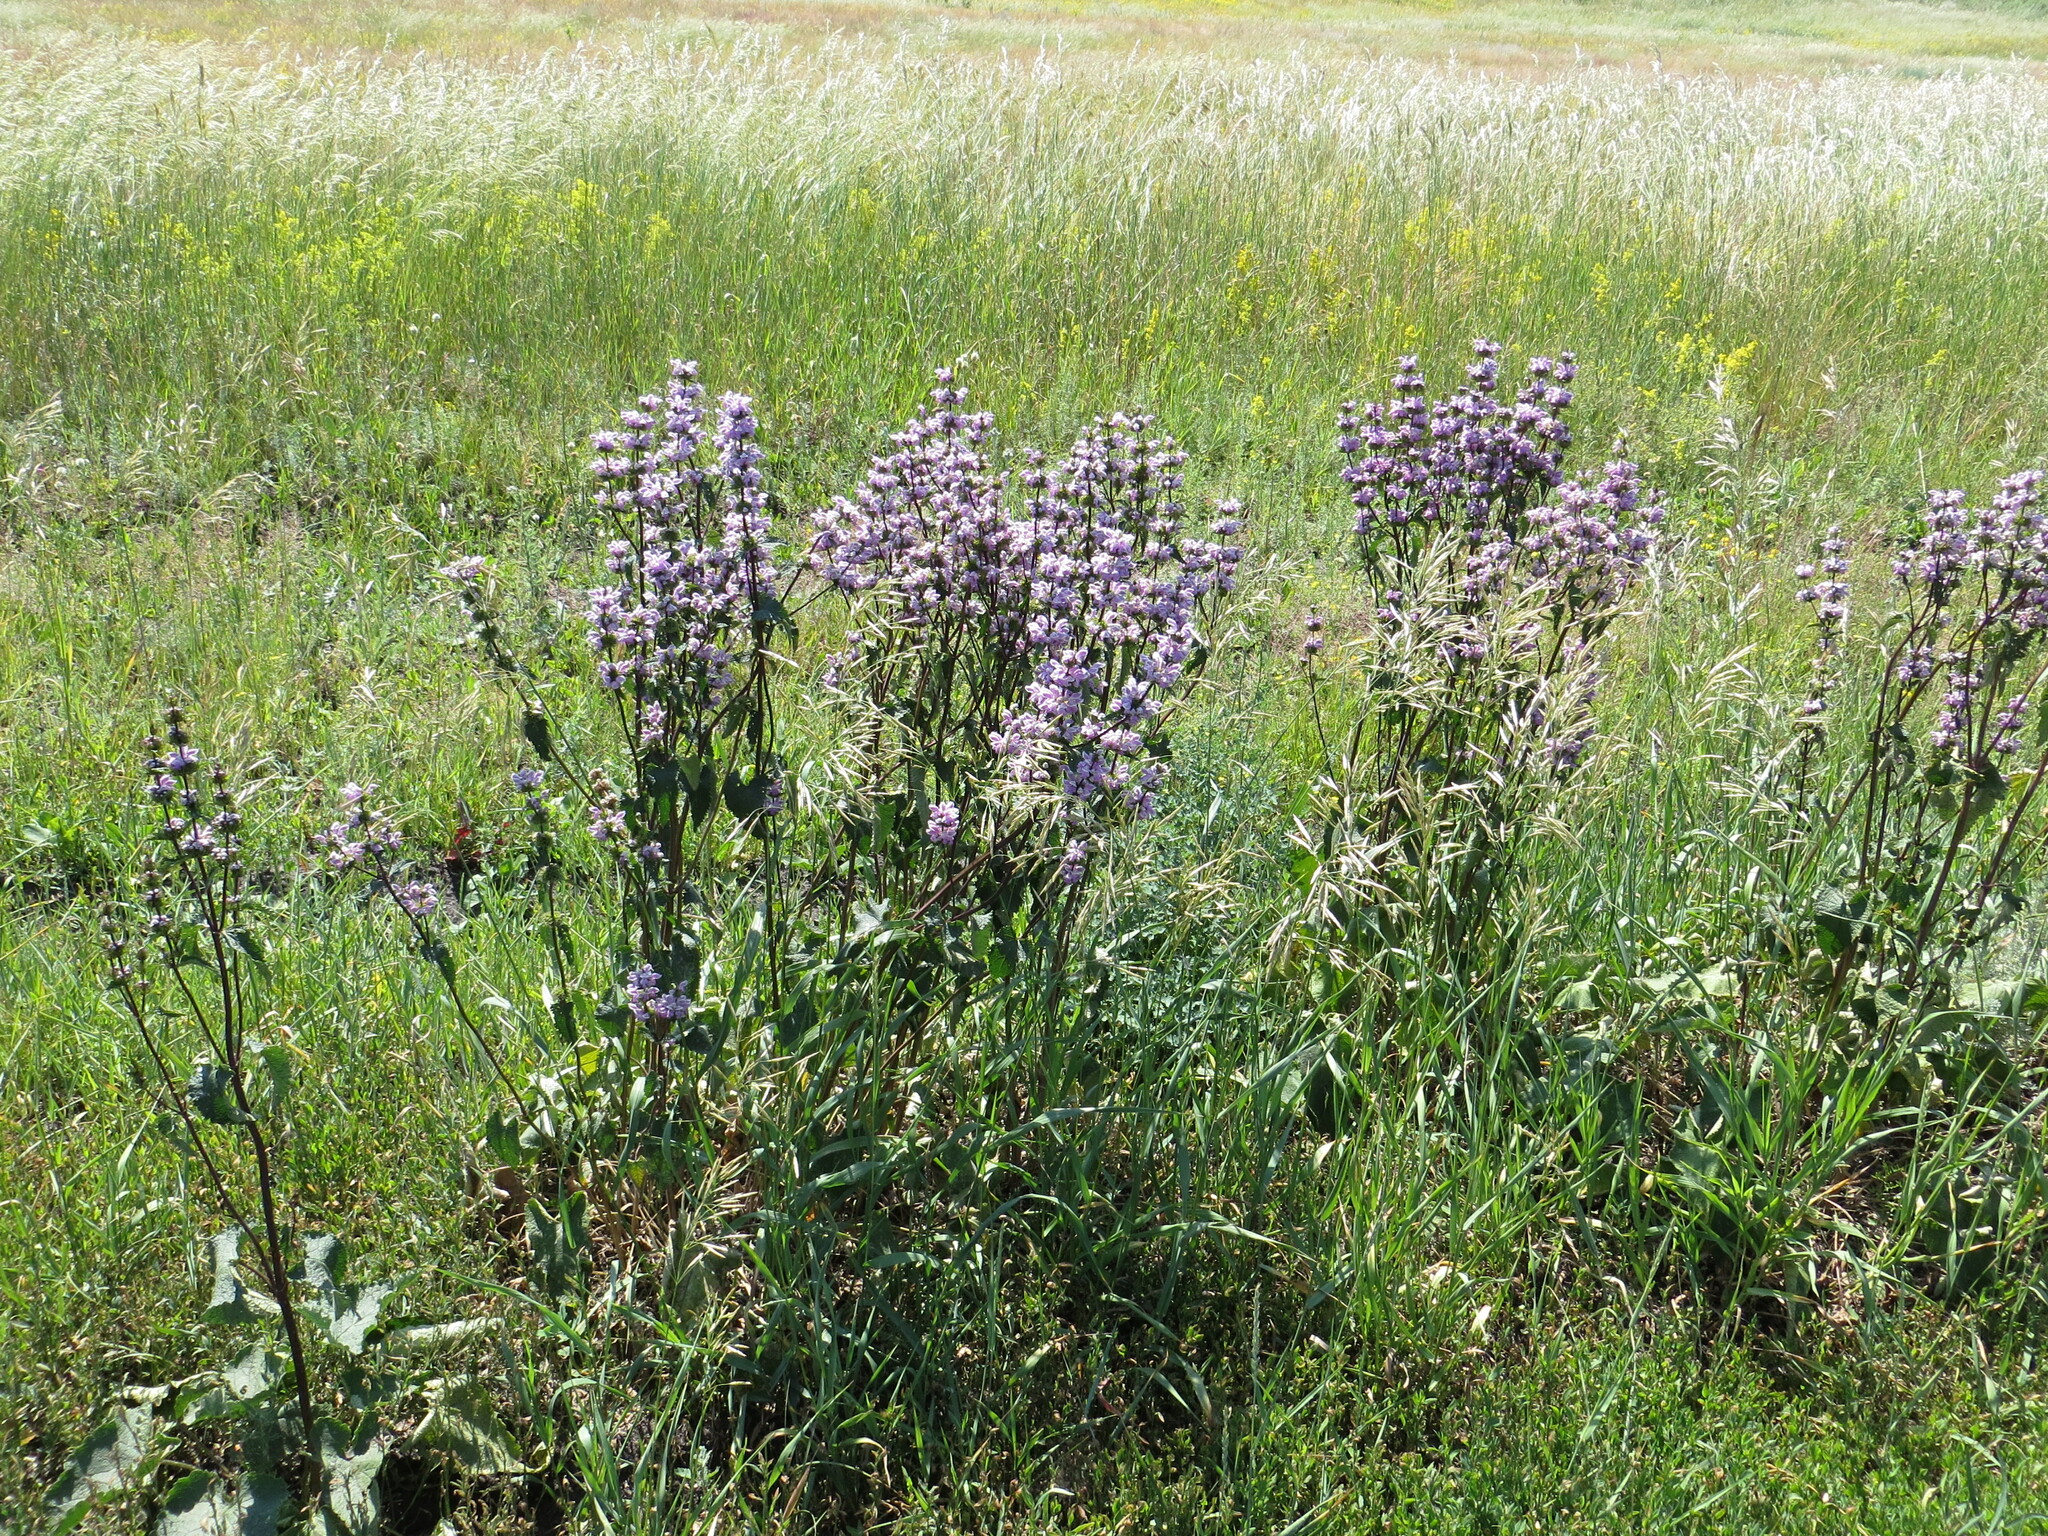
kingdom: Plantae
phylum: Tracheophyta
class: Magnoliopsida
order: Lamiales
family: Lamiaceae
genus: Phlomoides
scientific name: Phlomoides tuberosa
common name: Tuberous jerusalem sage
